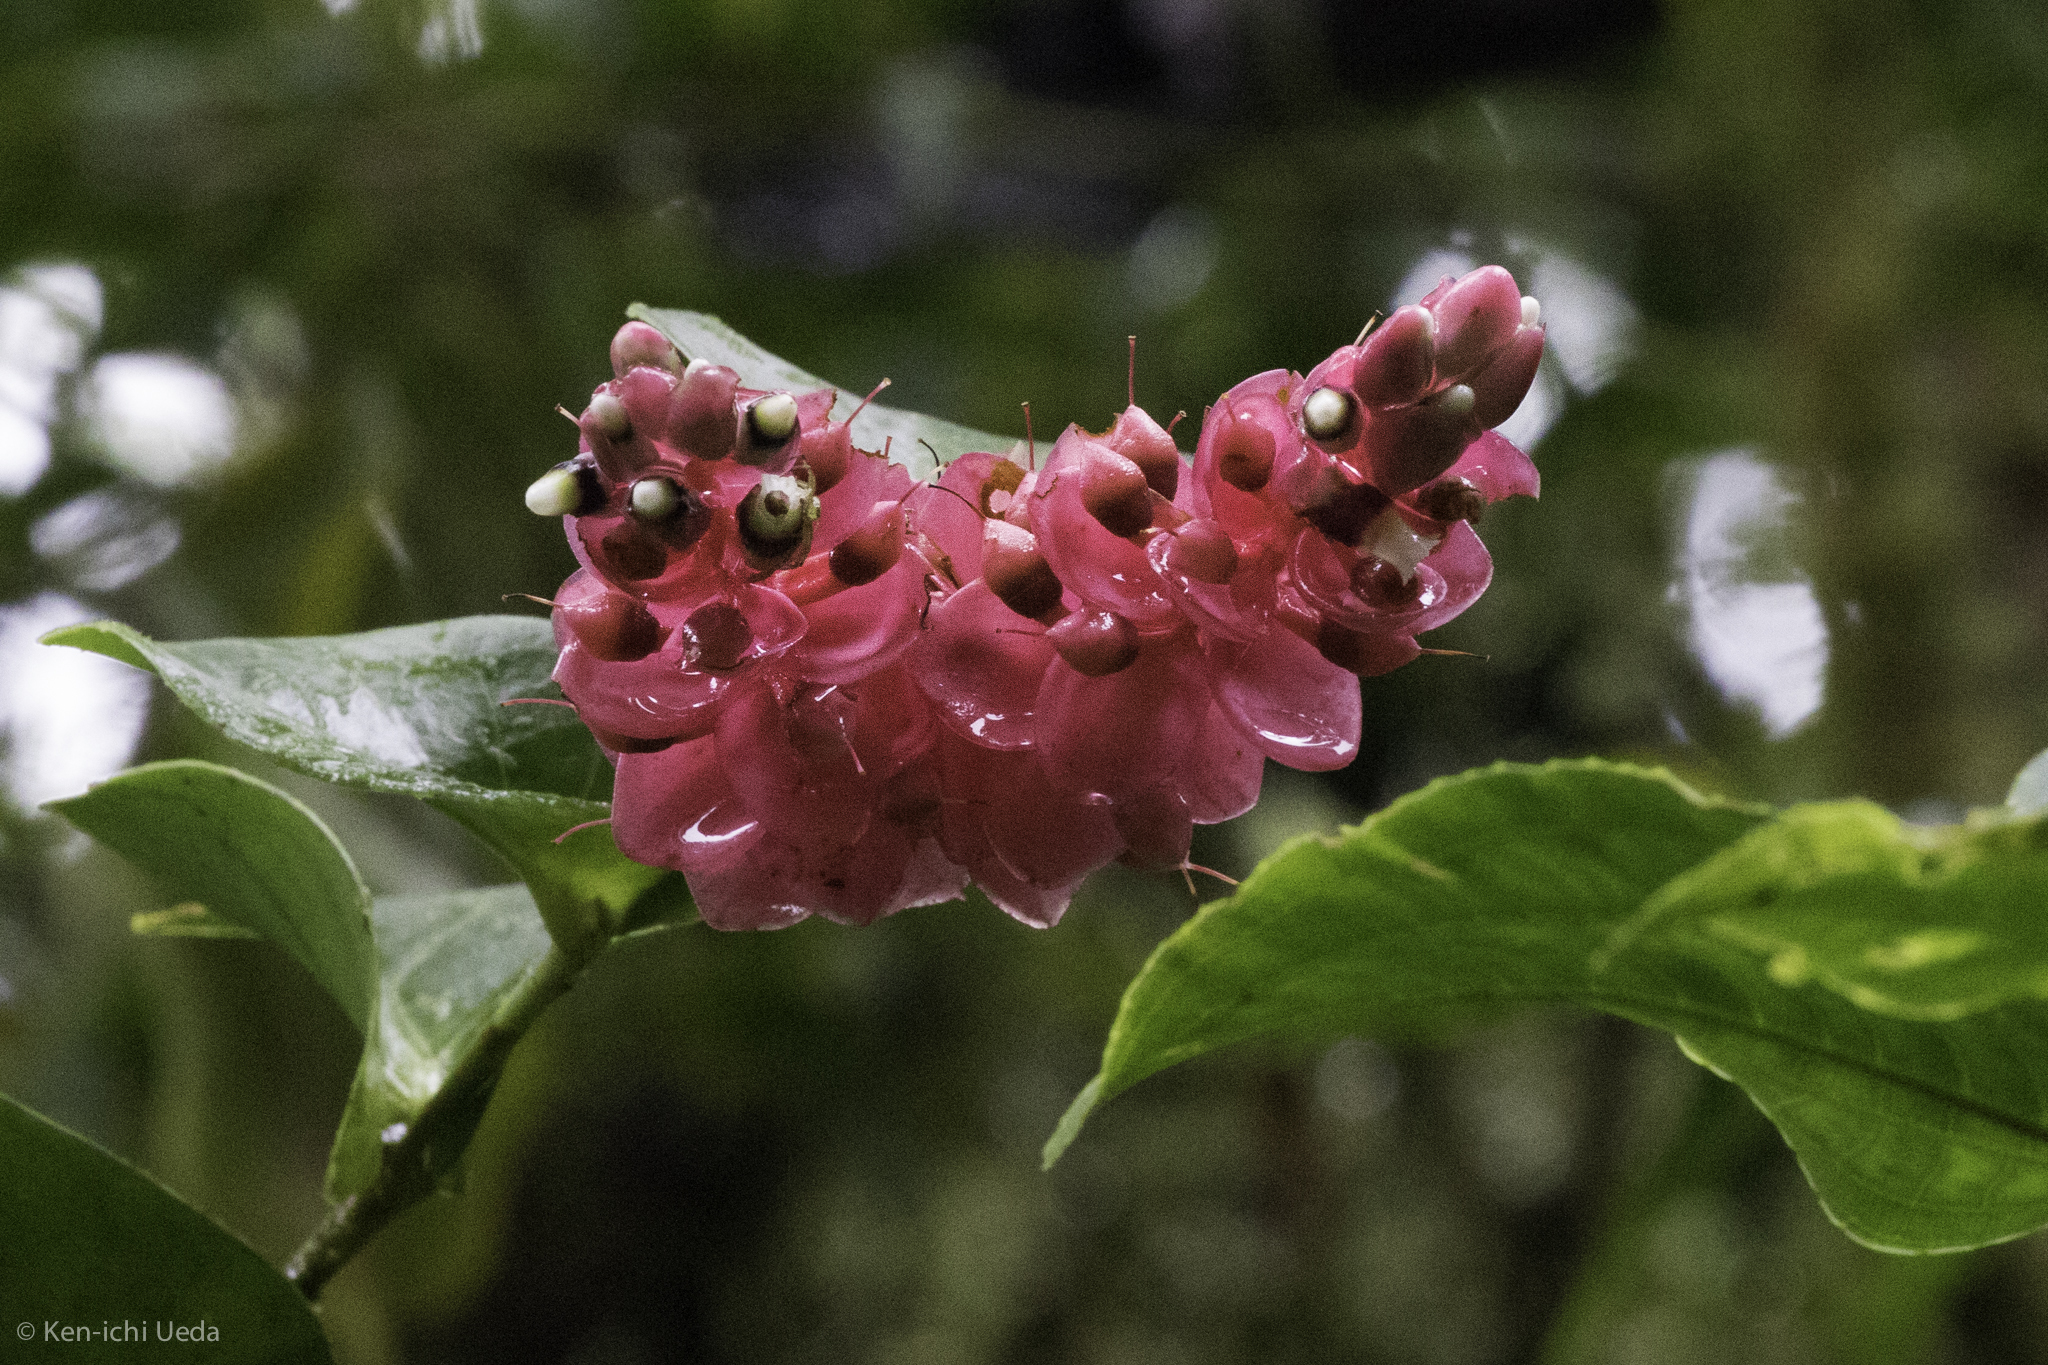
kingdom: Plantae
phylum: Tracheophyta
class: Magnoliopsida
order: Ericales
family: Ericaceae
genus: Cavendishia
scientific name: Cavendishia complectens
